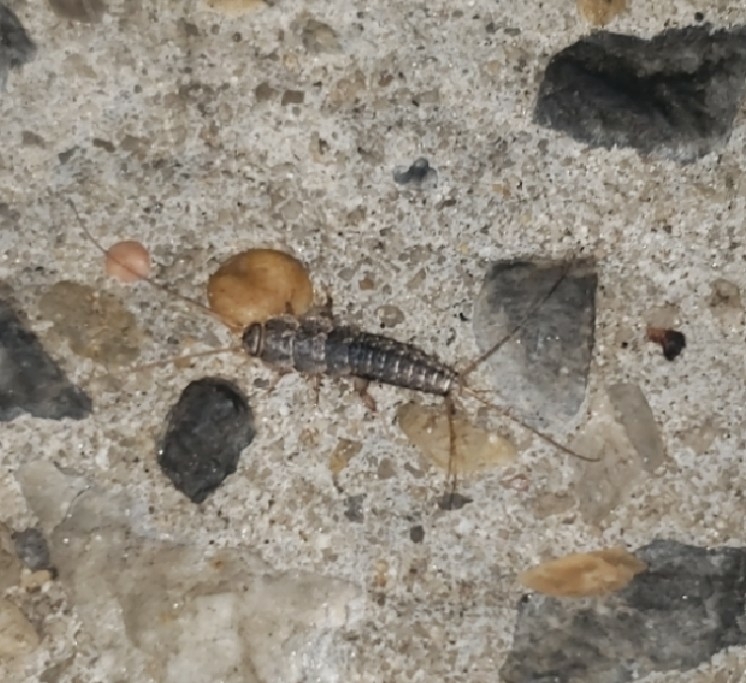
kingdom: Animalia
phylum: Arthropoda
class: Insecta
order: Zygentoma
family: Lepismatidae
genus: Ctenolepisma
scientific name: Ctenolepisma lineata
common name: Four-lined silverfish
